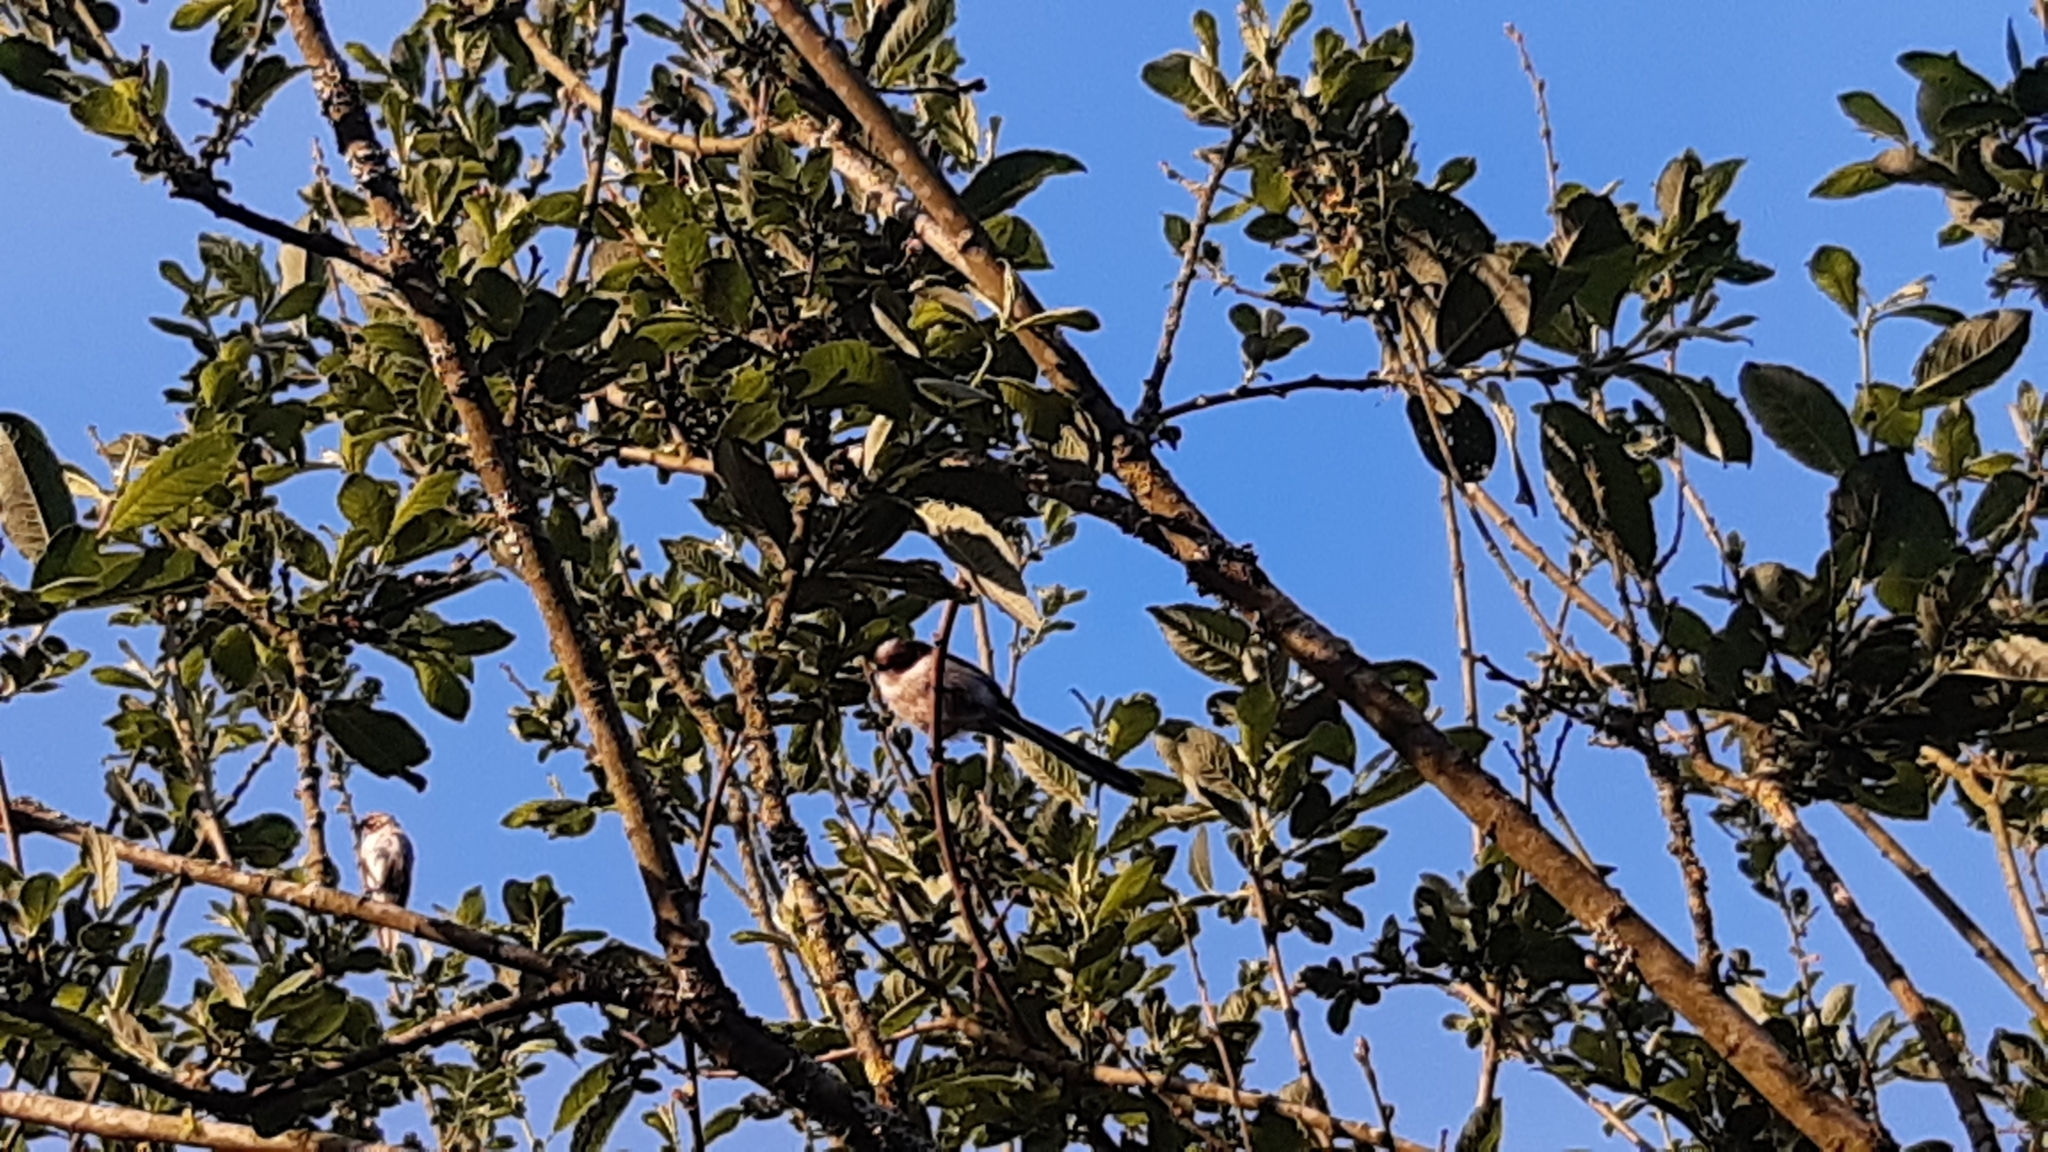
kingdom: Animalia
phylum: Chordata
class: Aves
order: Passeriformes
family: Aegithalidae
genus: Aegithalos
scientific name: Aegithalos caudatus
